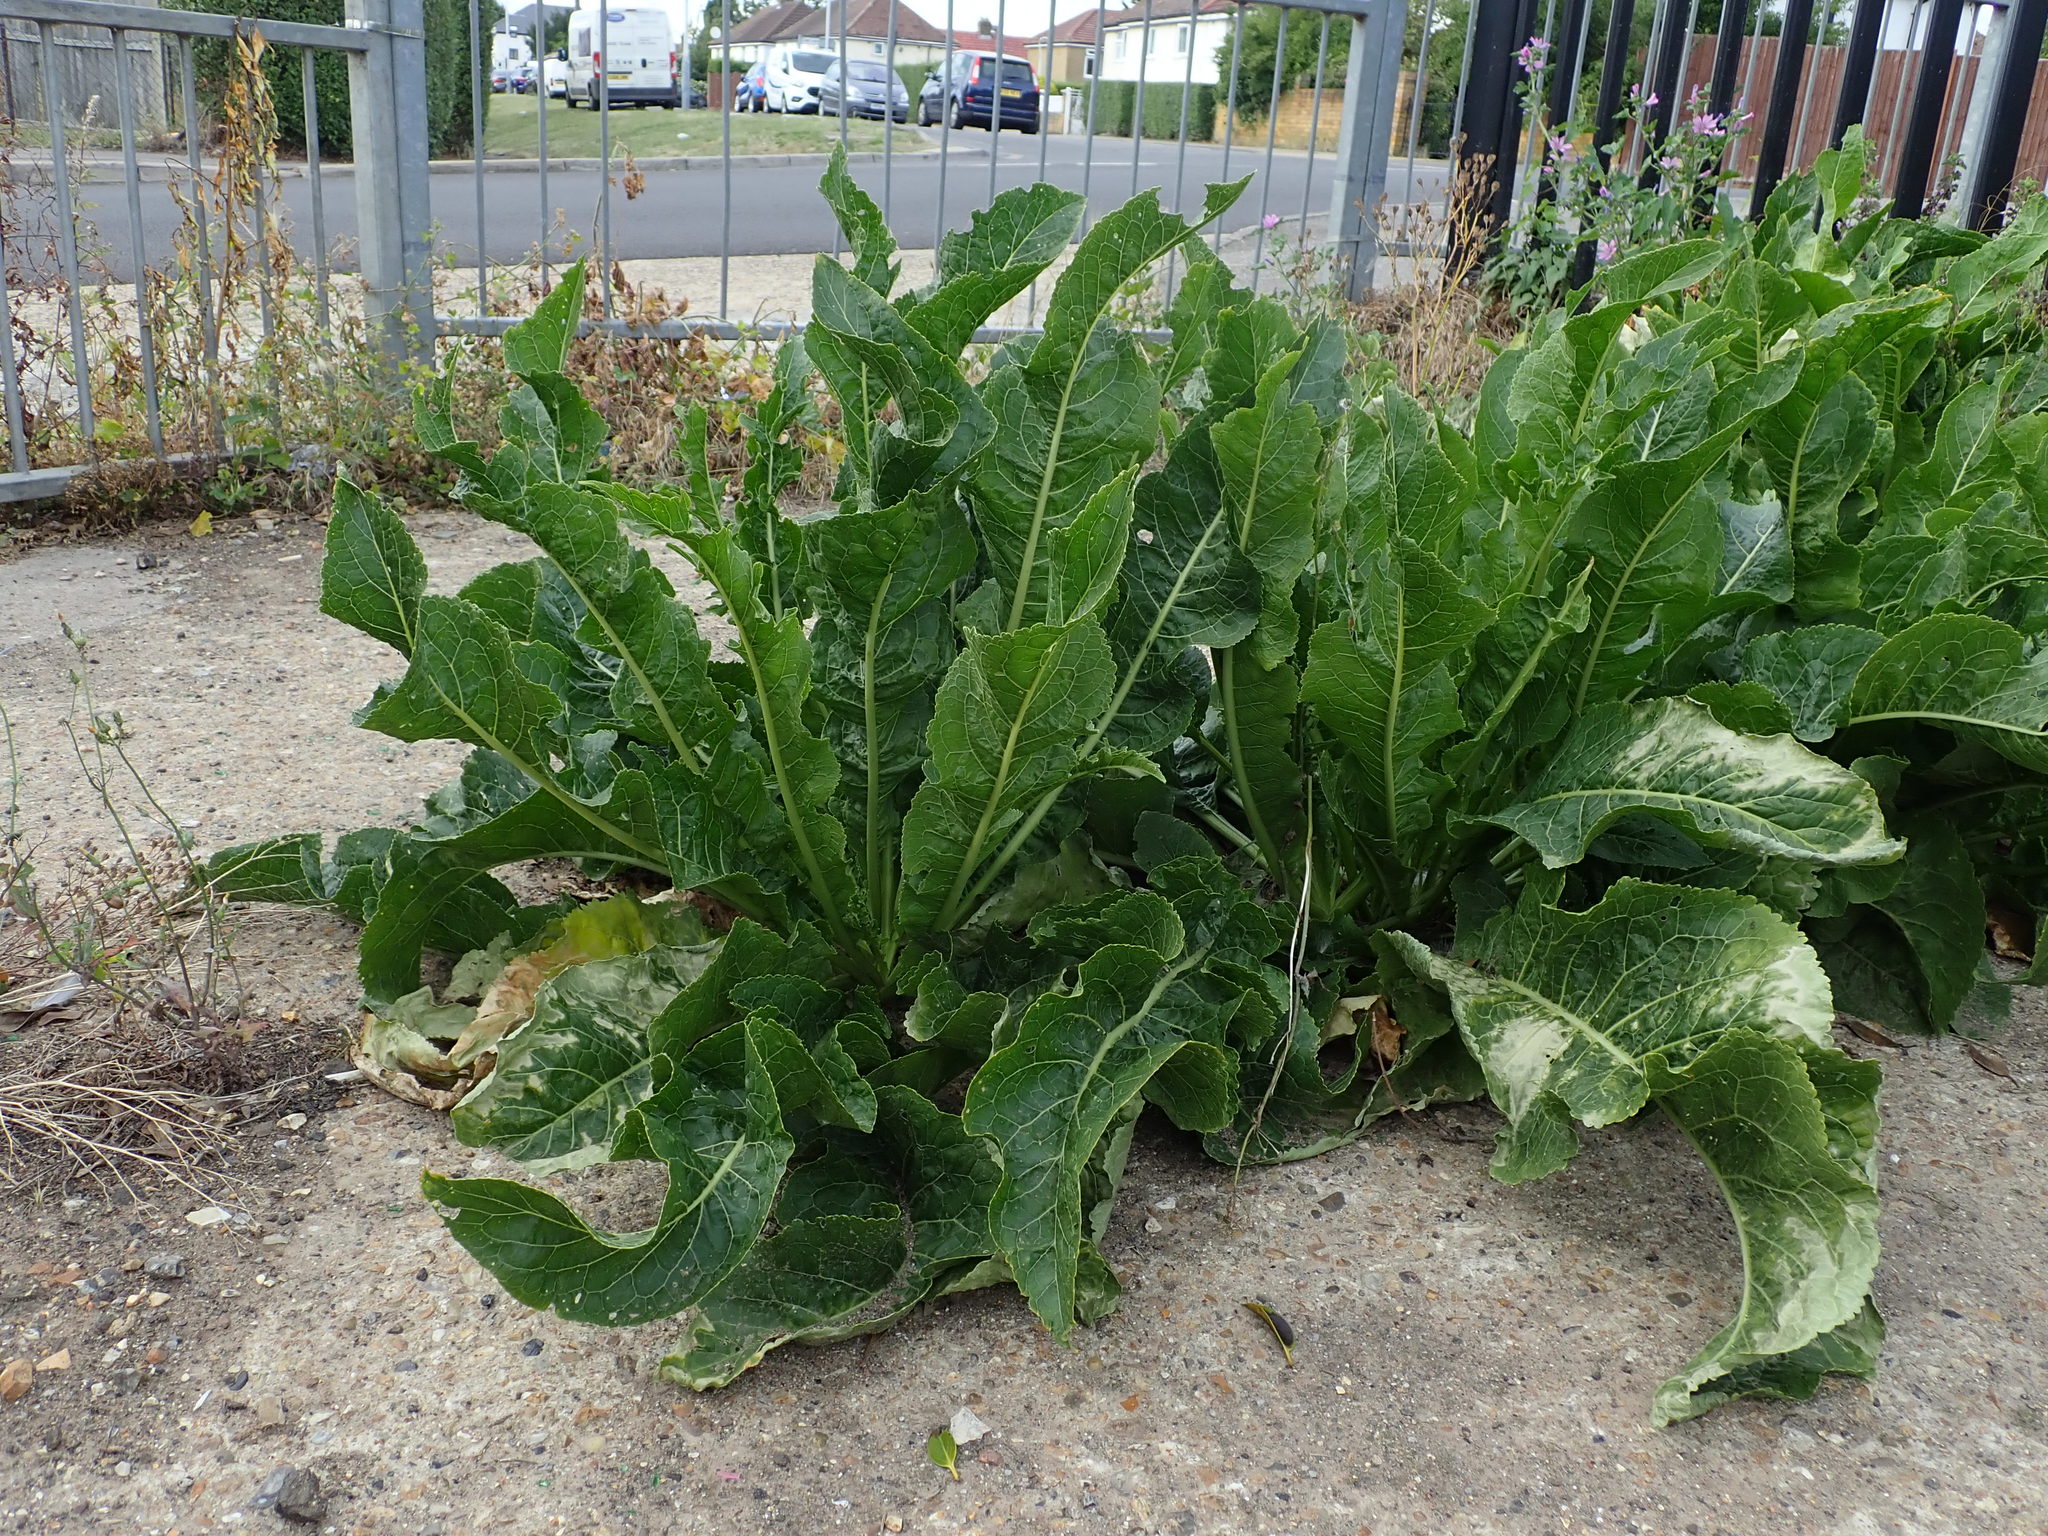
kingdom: Plantae
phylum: Tracheophyta
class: Magnoliopsida
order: Brassicales
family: Brassicaceae
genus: Armoracia
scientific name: Armoracia rusticana
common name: Horseradish
